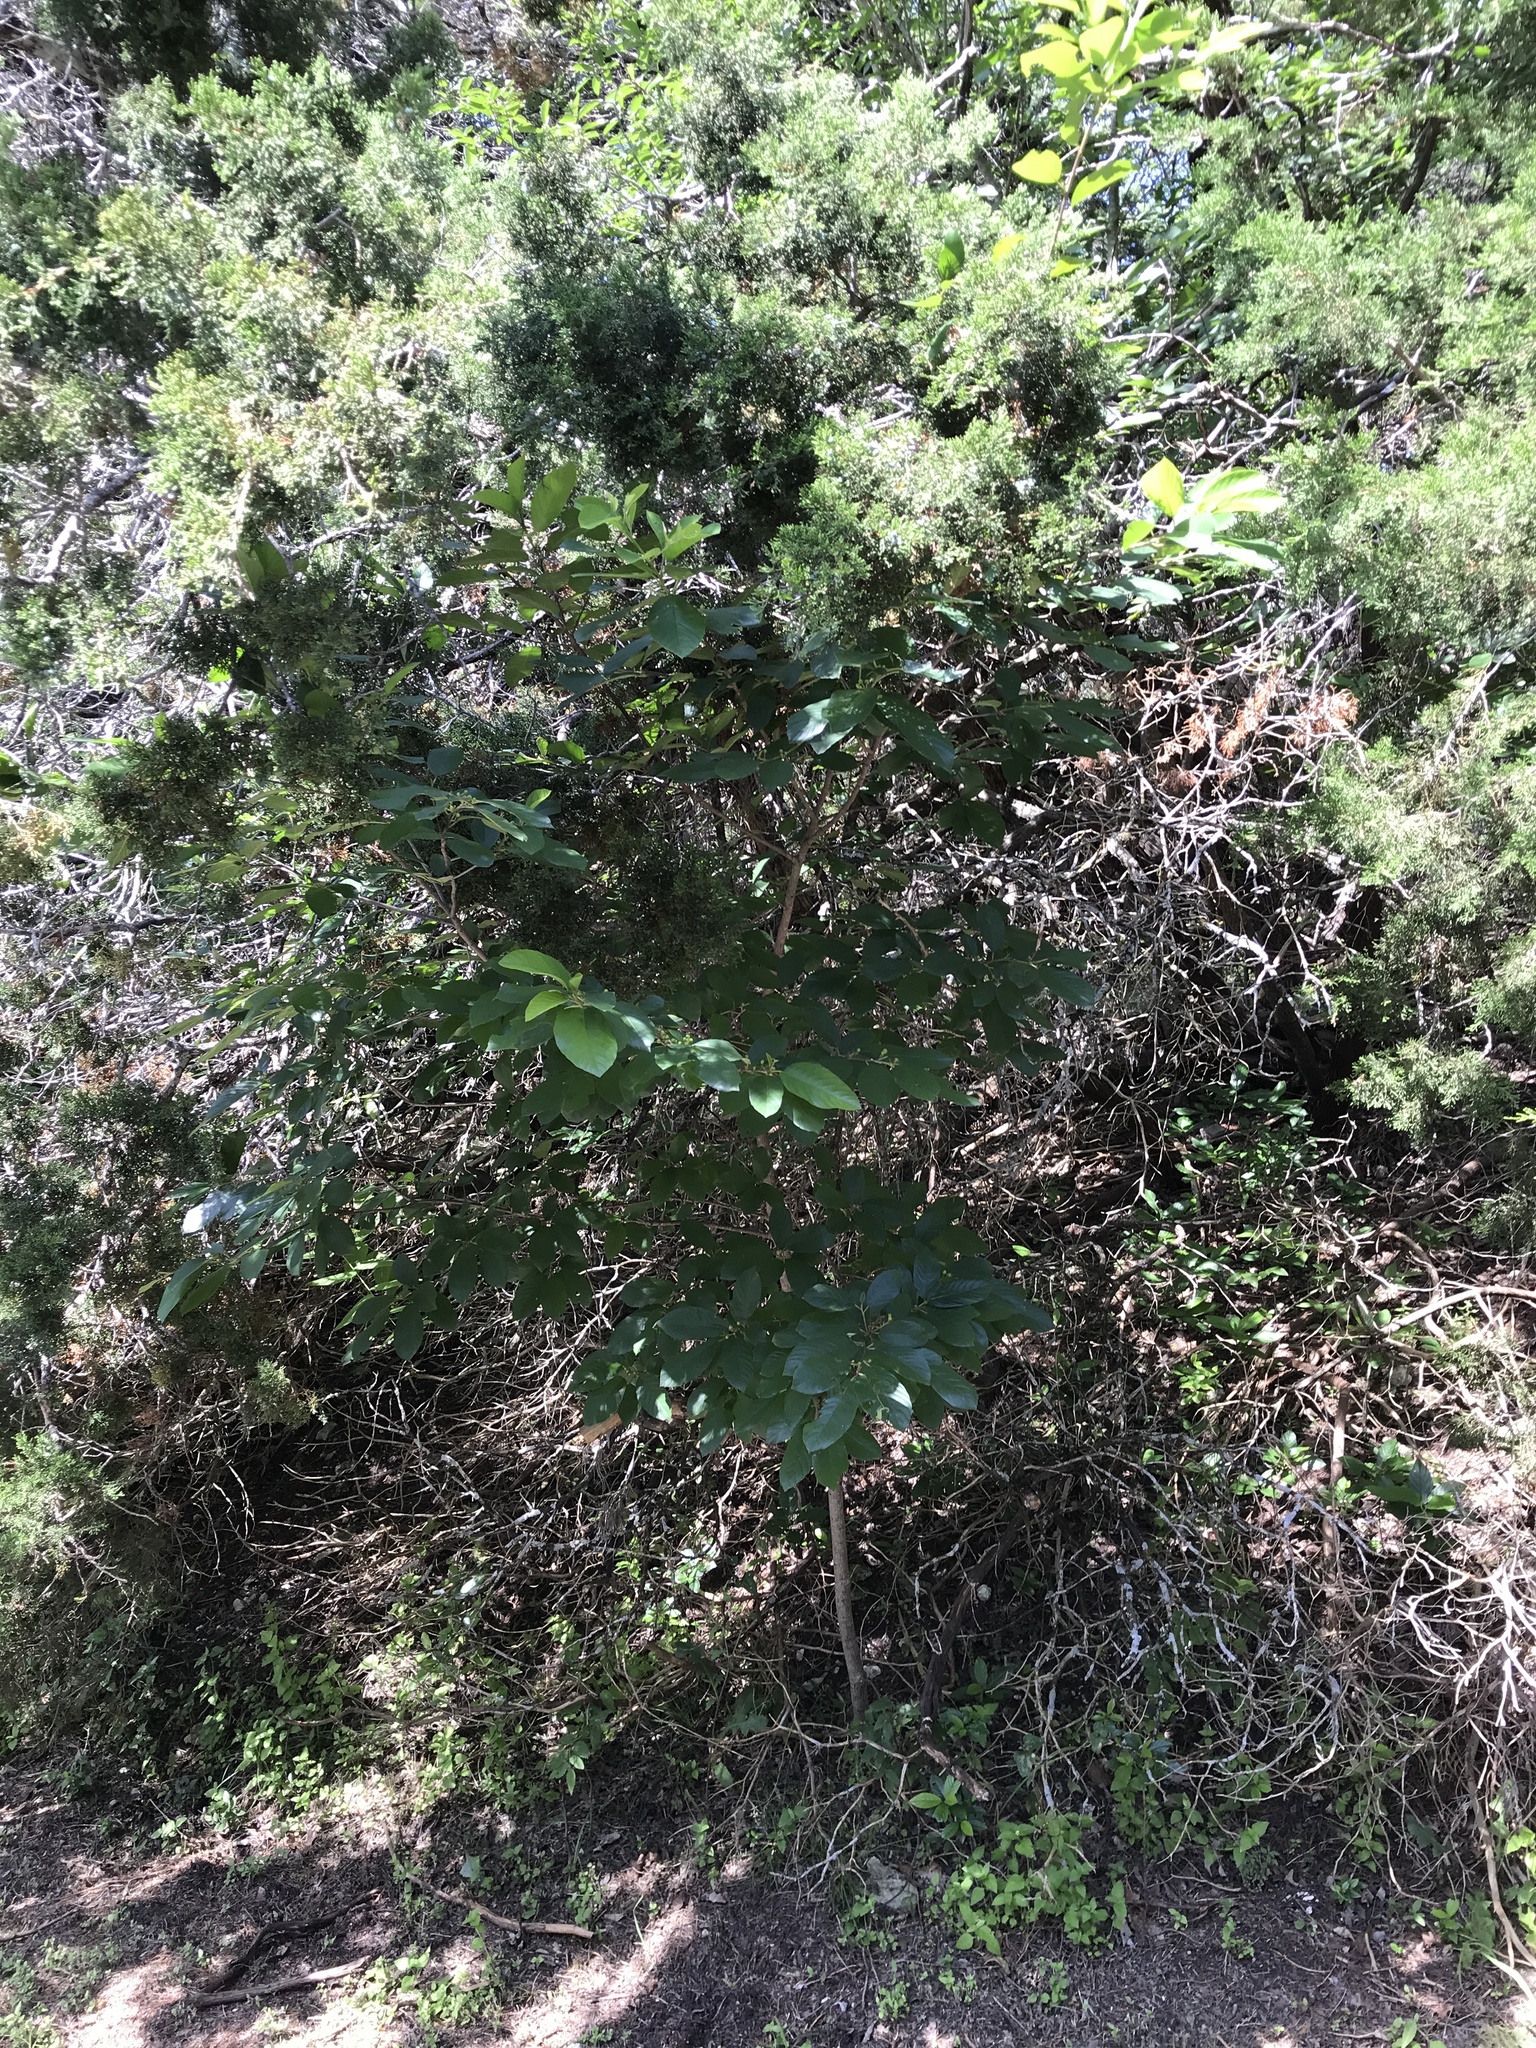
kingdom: Plantae
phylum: Tracheophyta
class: Magnoliopsida
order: Rosales
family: Rhamnaceae
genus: Frangula
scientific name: Frangula caroliniana
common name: Carolina buckthorn
